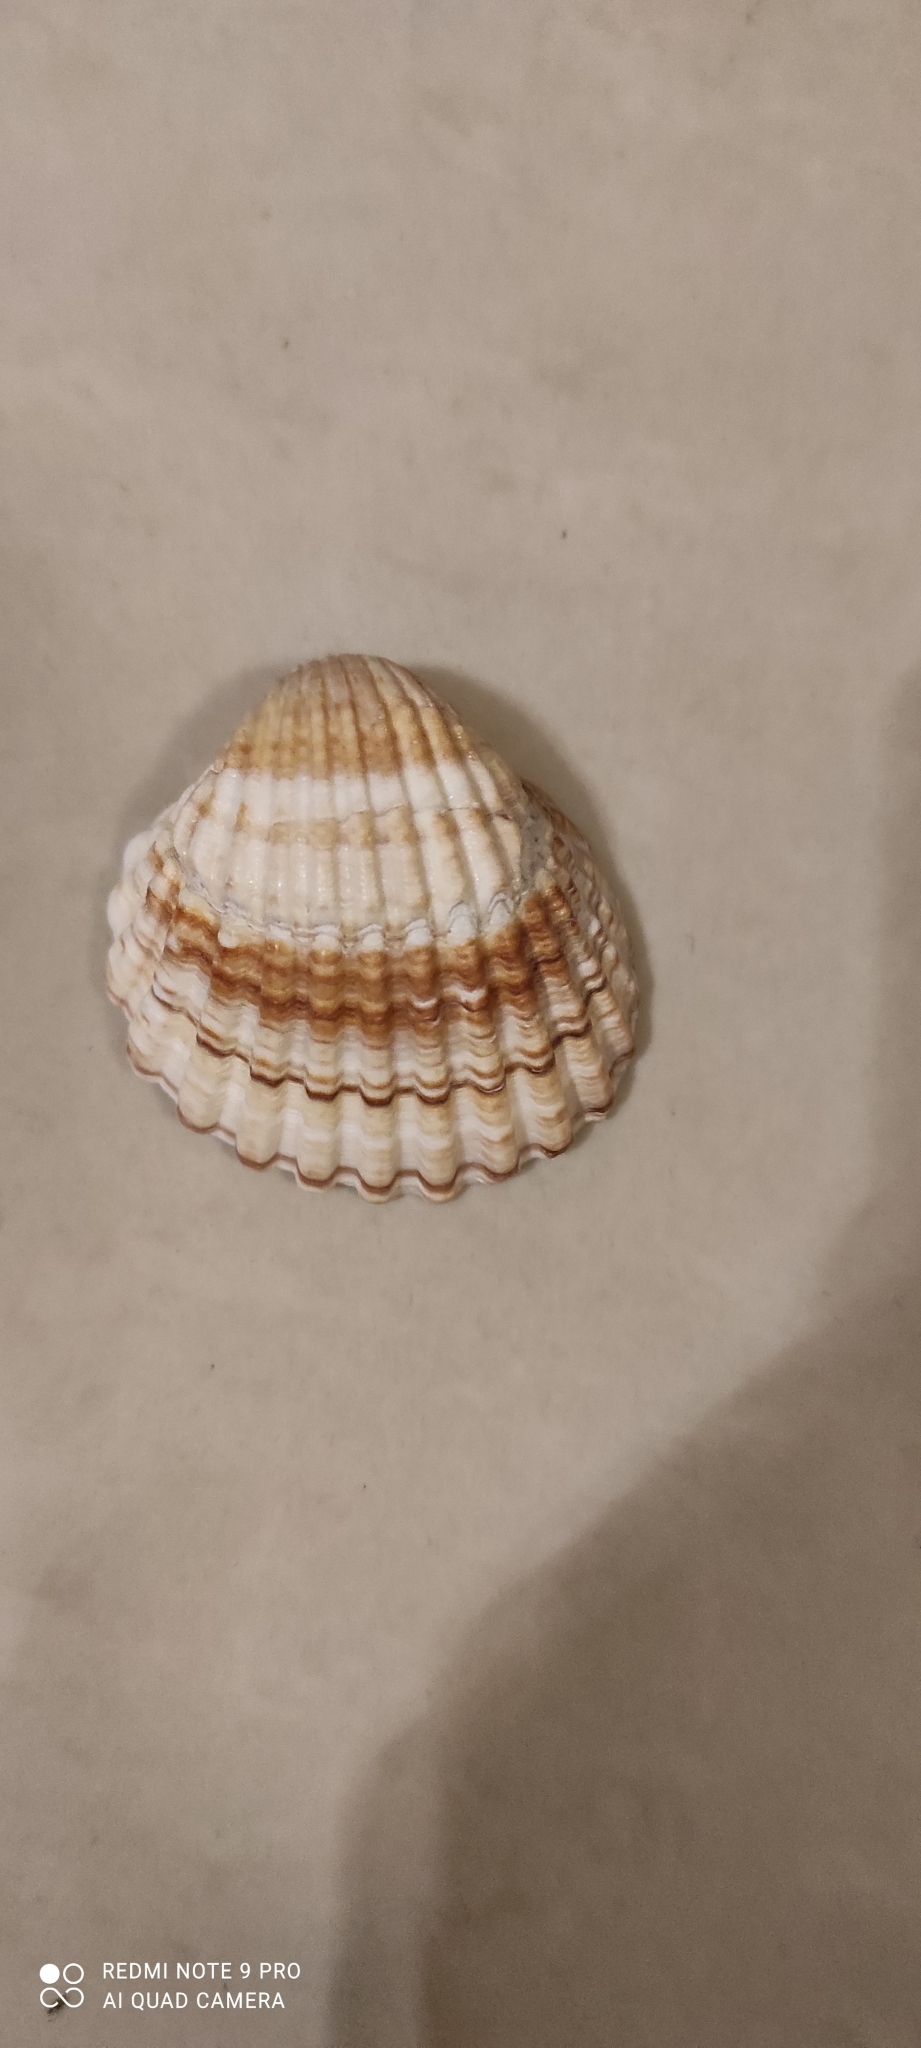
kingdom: Animalia
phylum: Mollusca
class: Bivalvia
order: Cardiida
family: Cardiidae
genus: Acanthocardia
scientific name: Acanthocardia tuberculata
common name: Rough cockle
